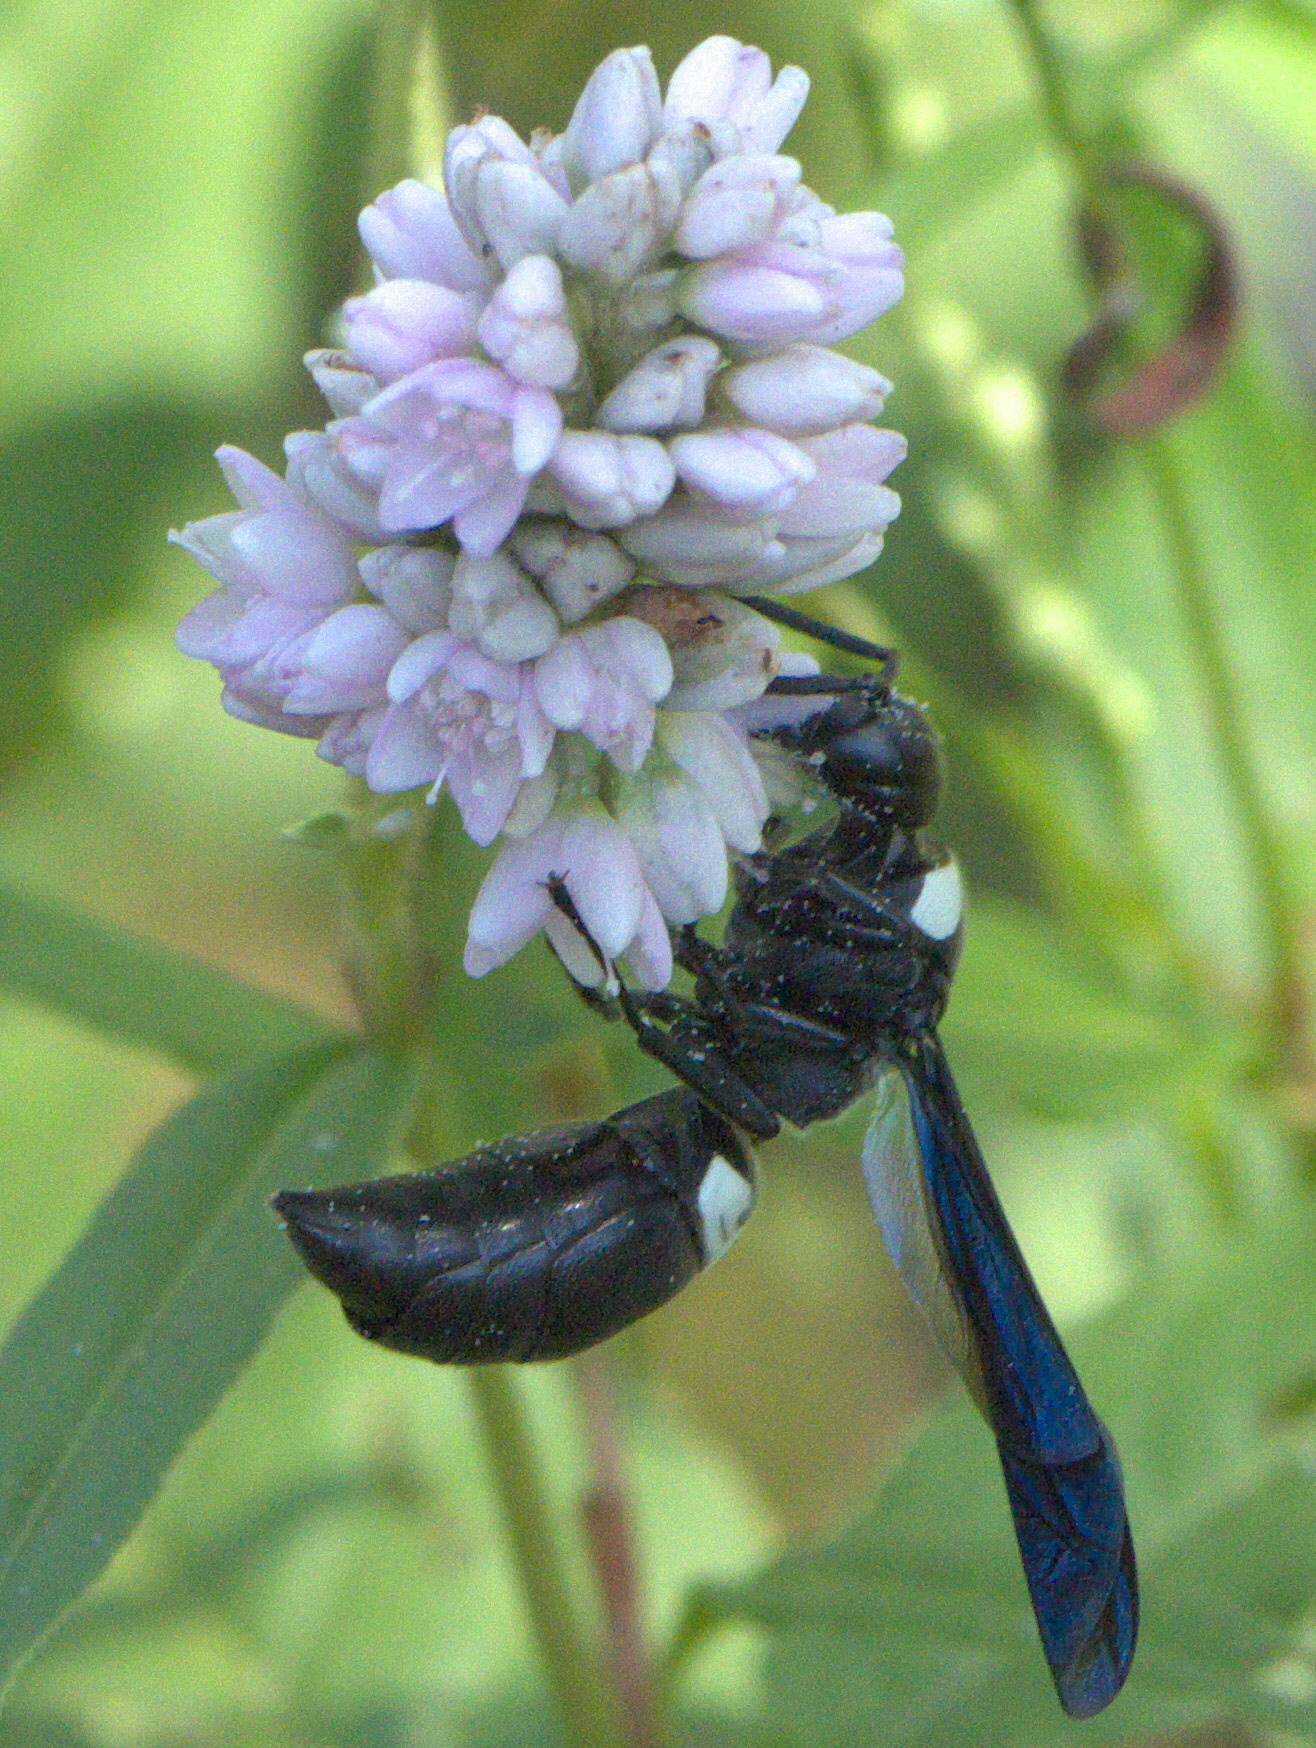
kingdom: Animalia
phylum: Arthropoda
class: Insecta
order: Hymenoptera
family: Eumenidae
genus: Monobia
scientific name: Monobia quadridens
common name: Four-toothed mason wasp
